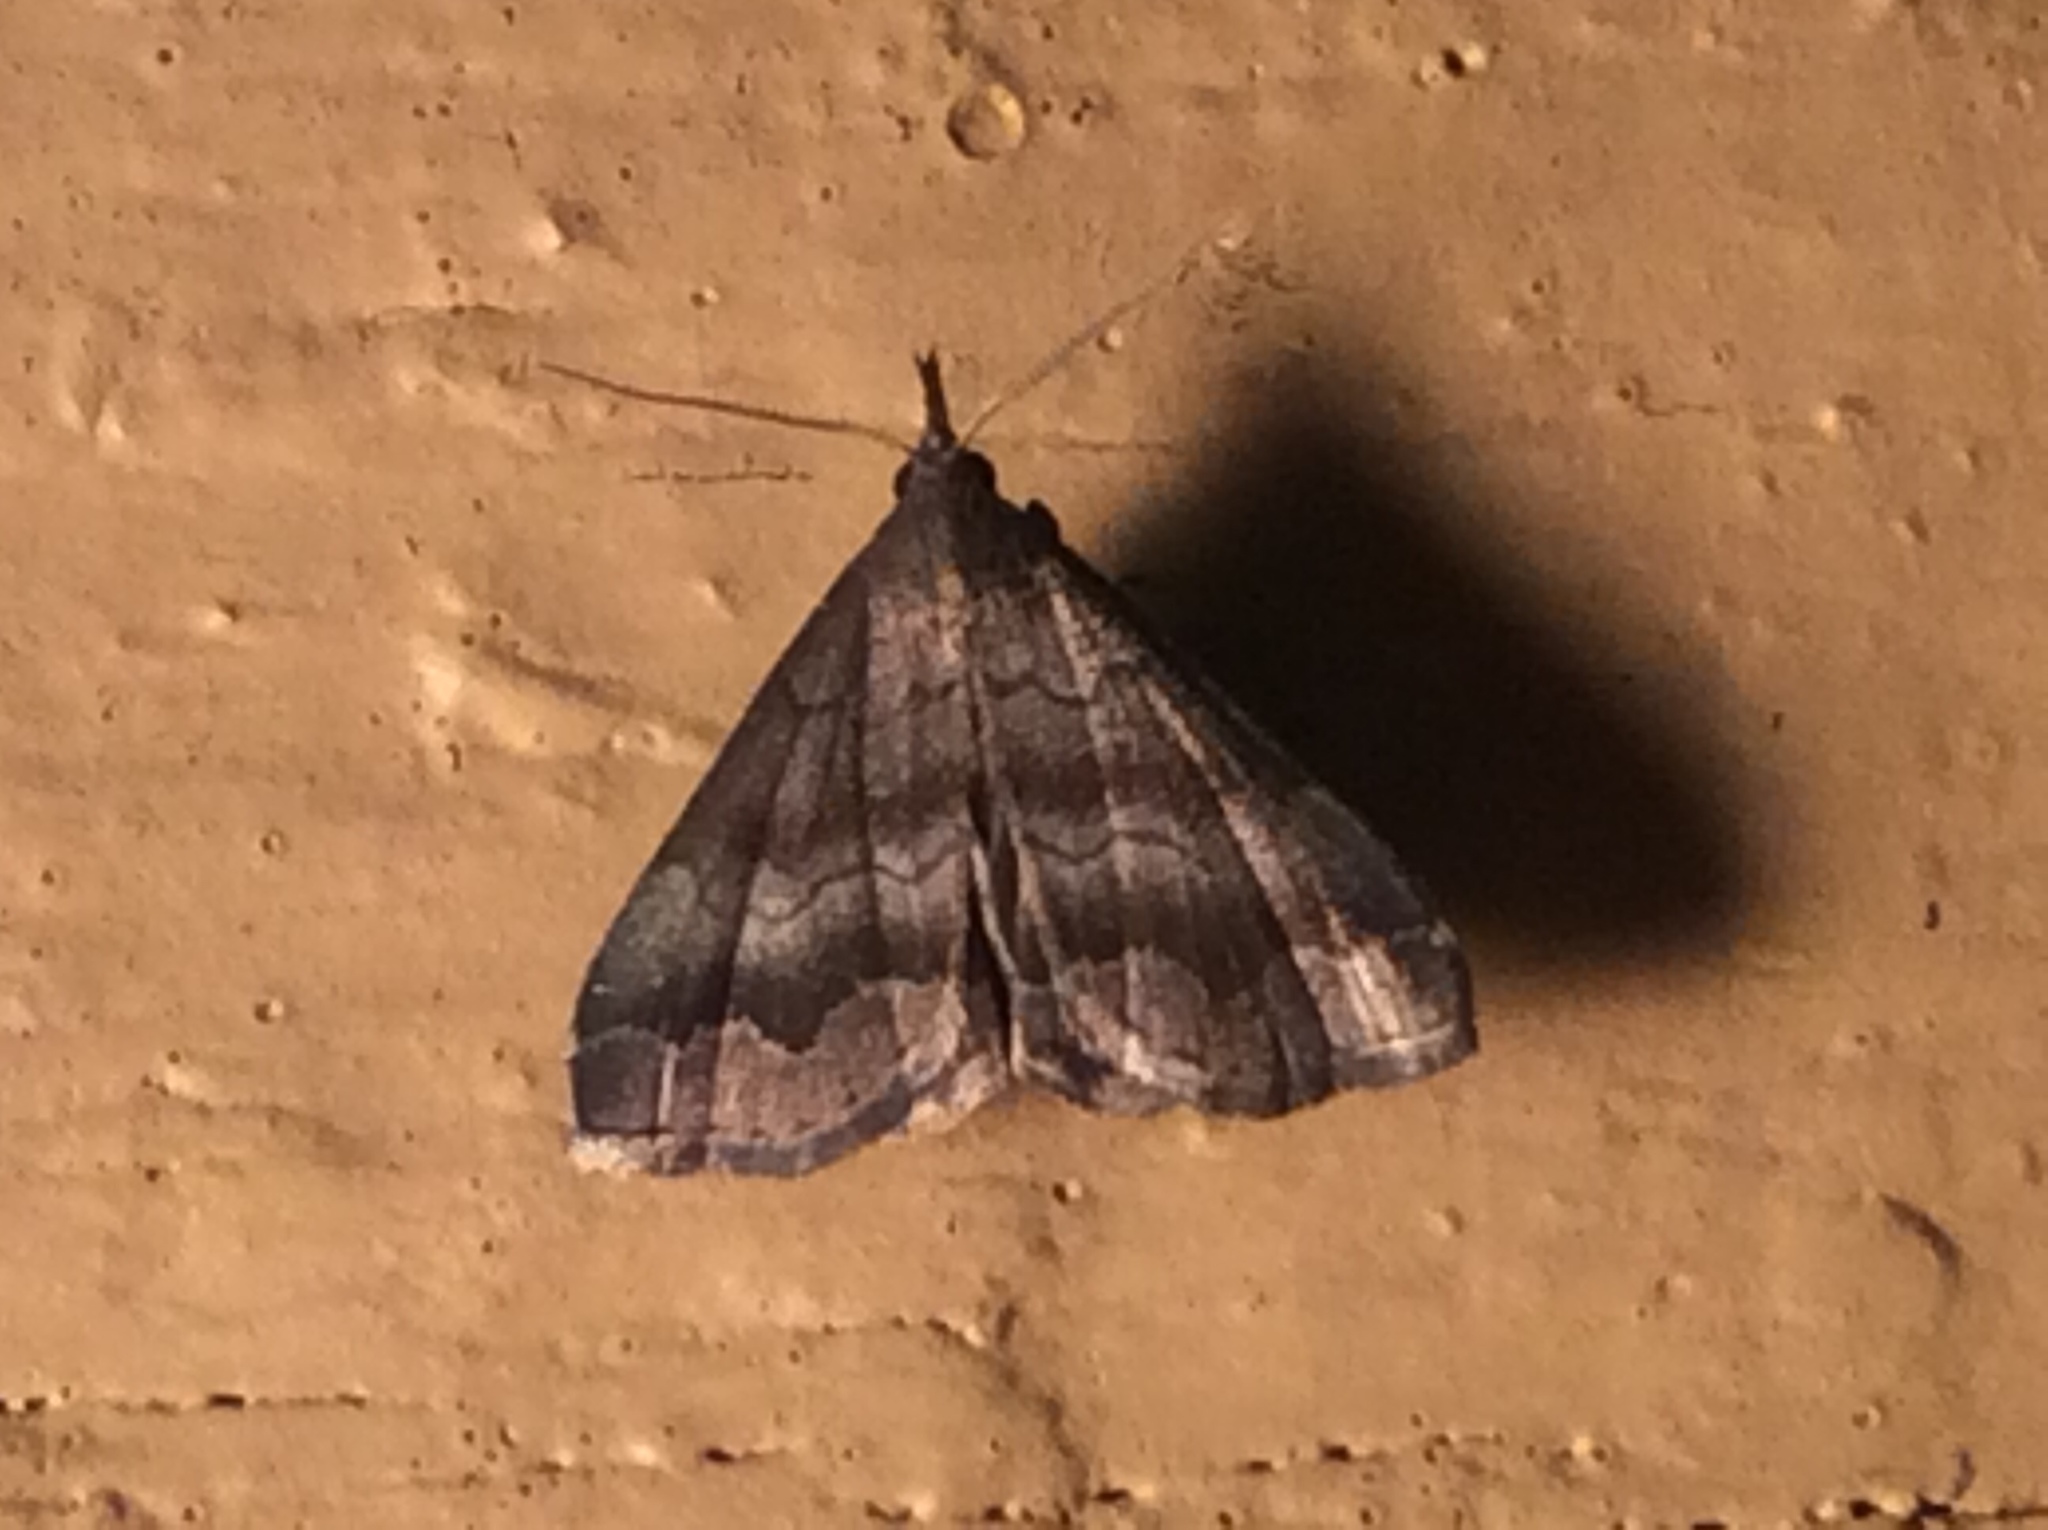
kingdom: Animalia
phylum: Arthropoda
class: Insecta
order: Lepidoptera
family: Erebidae
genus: Phalaenostola
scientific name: Phalaenostola larentioides
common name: Black-banded owlet
